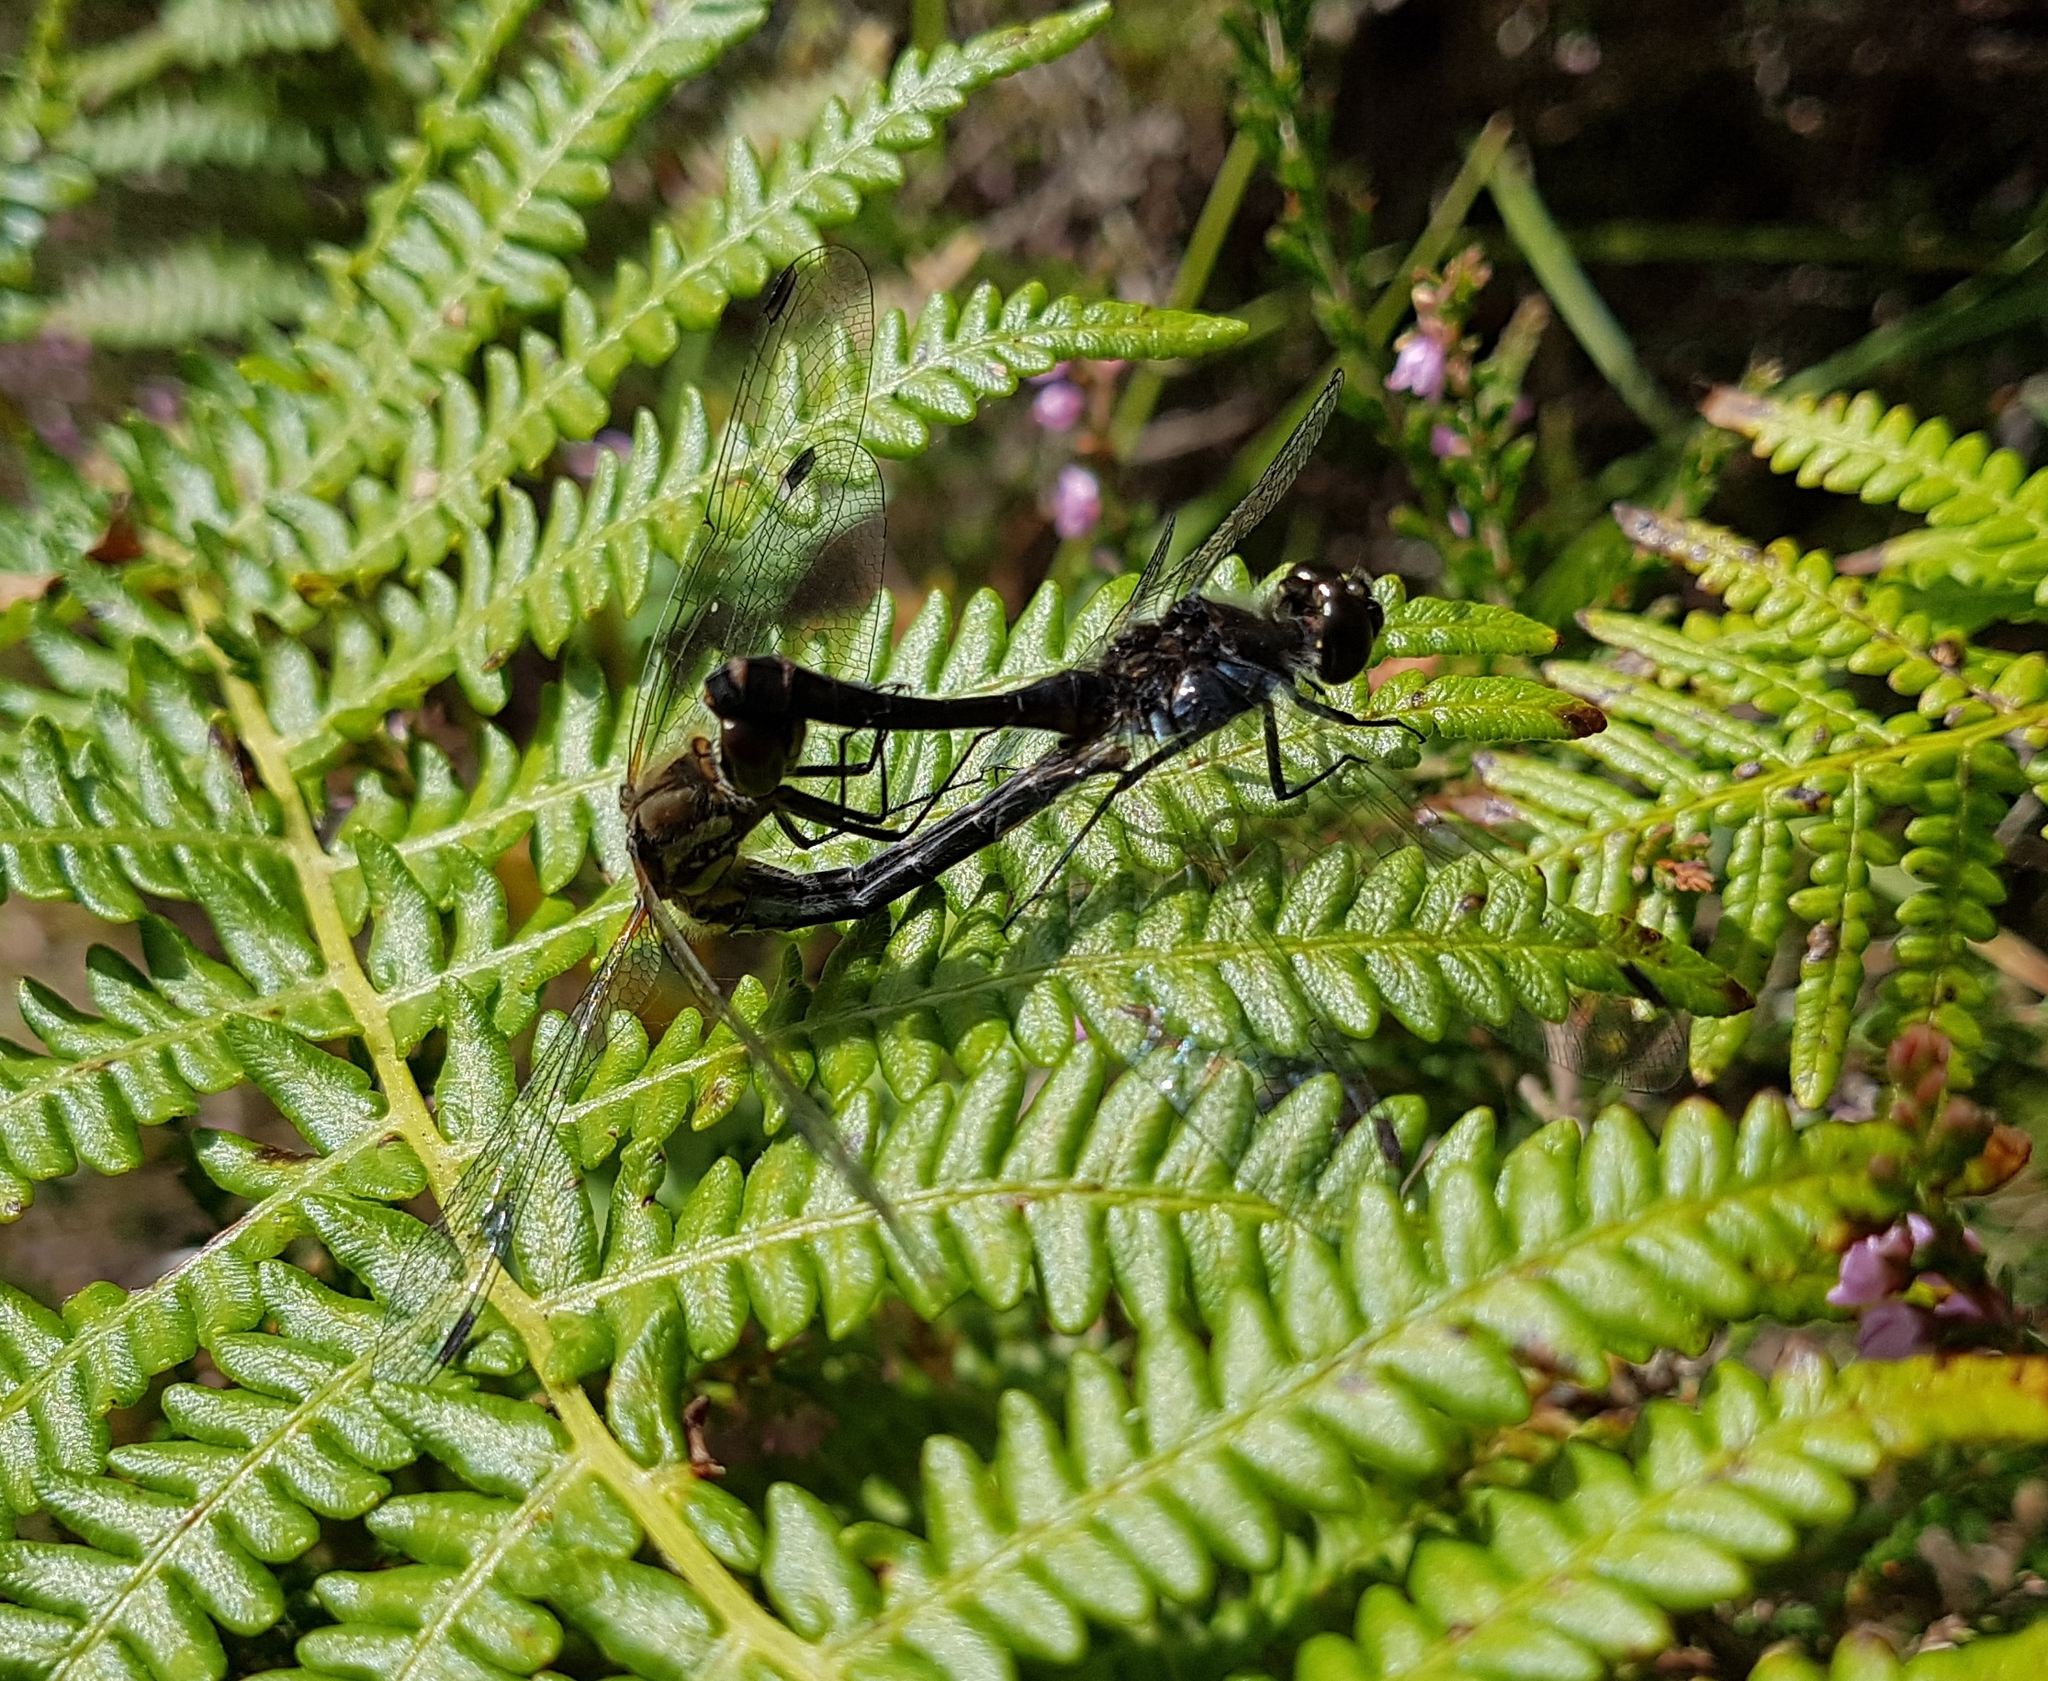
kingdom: Animalia
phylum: Arthropoda
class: Insecta
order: Odonata
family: Libellulidae
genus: Sympetrum
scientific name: Sympetrum danae
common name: Black darter
